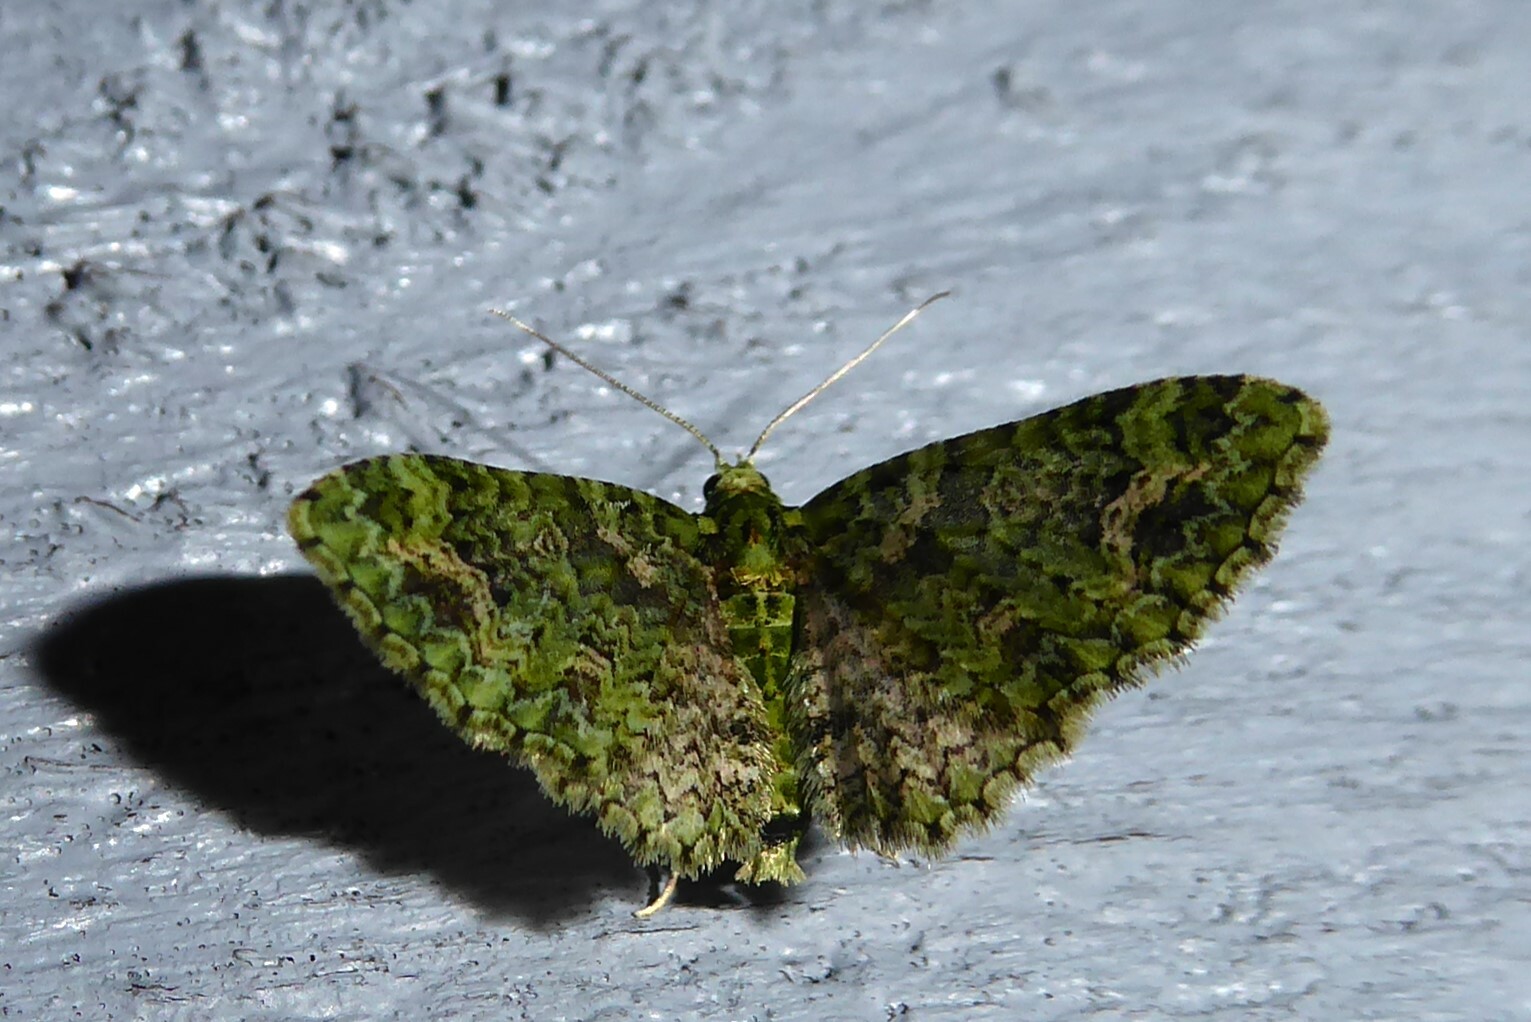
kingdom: Animalia
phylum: Arthropoda
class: Insecta
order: Lepidoptera
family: Geometridae
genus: Pasiphila
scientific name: Pasiphila muscosata
